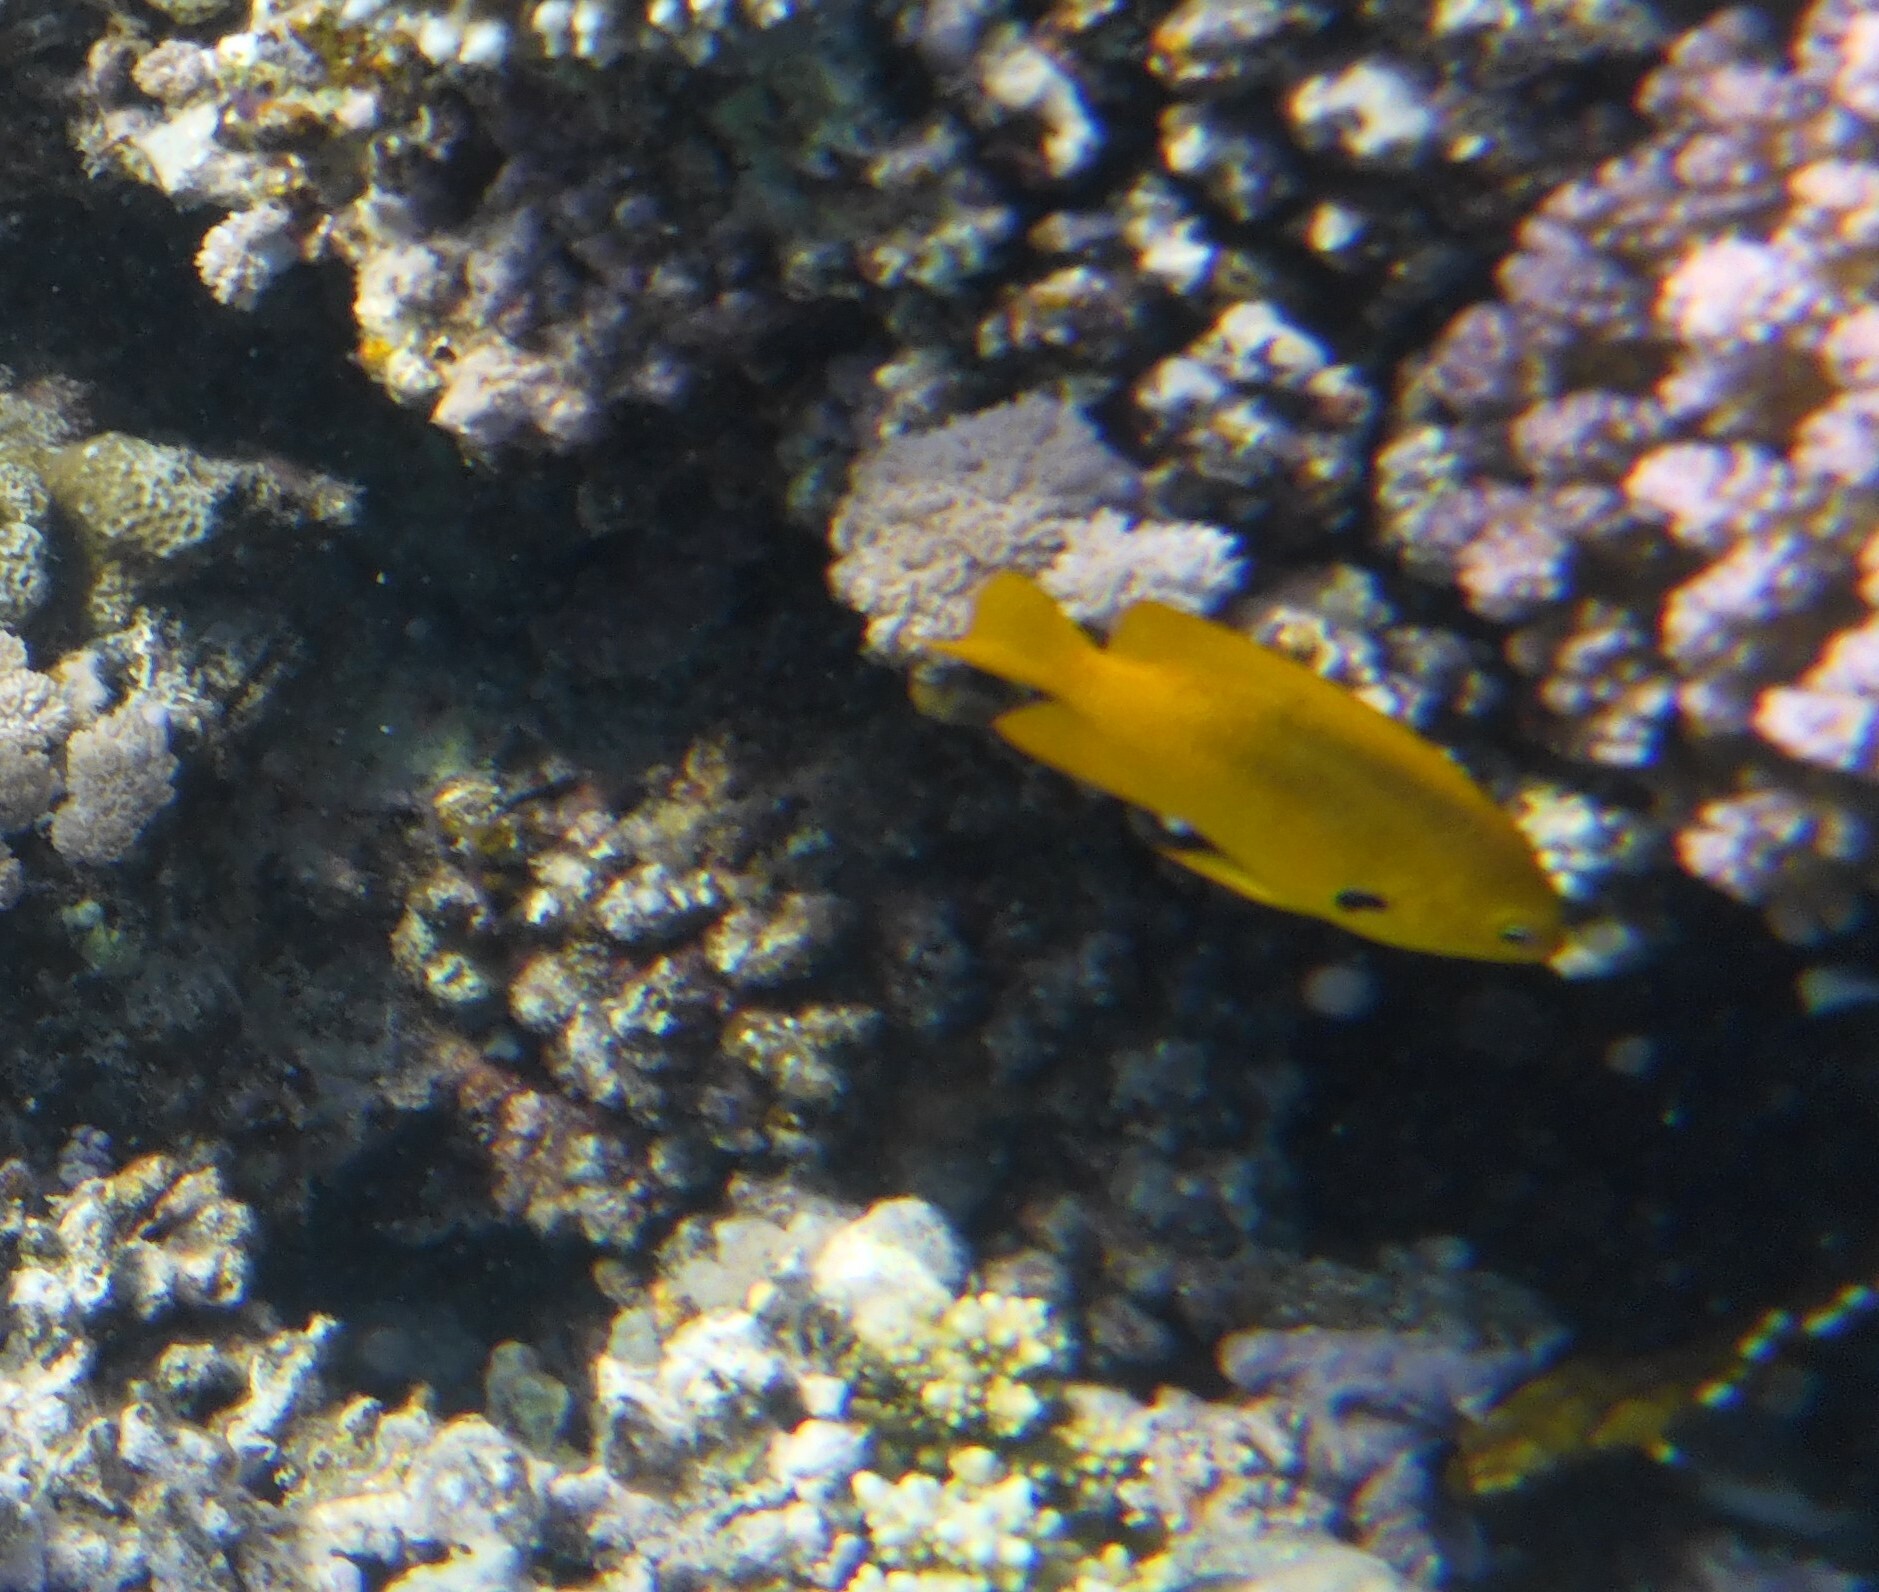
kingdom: Animalia
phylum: Chordata
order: Perciformes
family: Pomacentridae
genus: Pomacentrus
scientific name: Pomacentrus sulfureus
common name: Sulfur damsel
